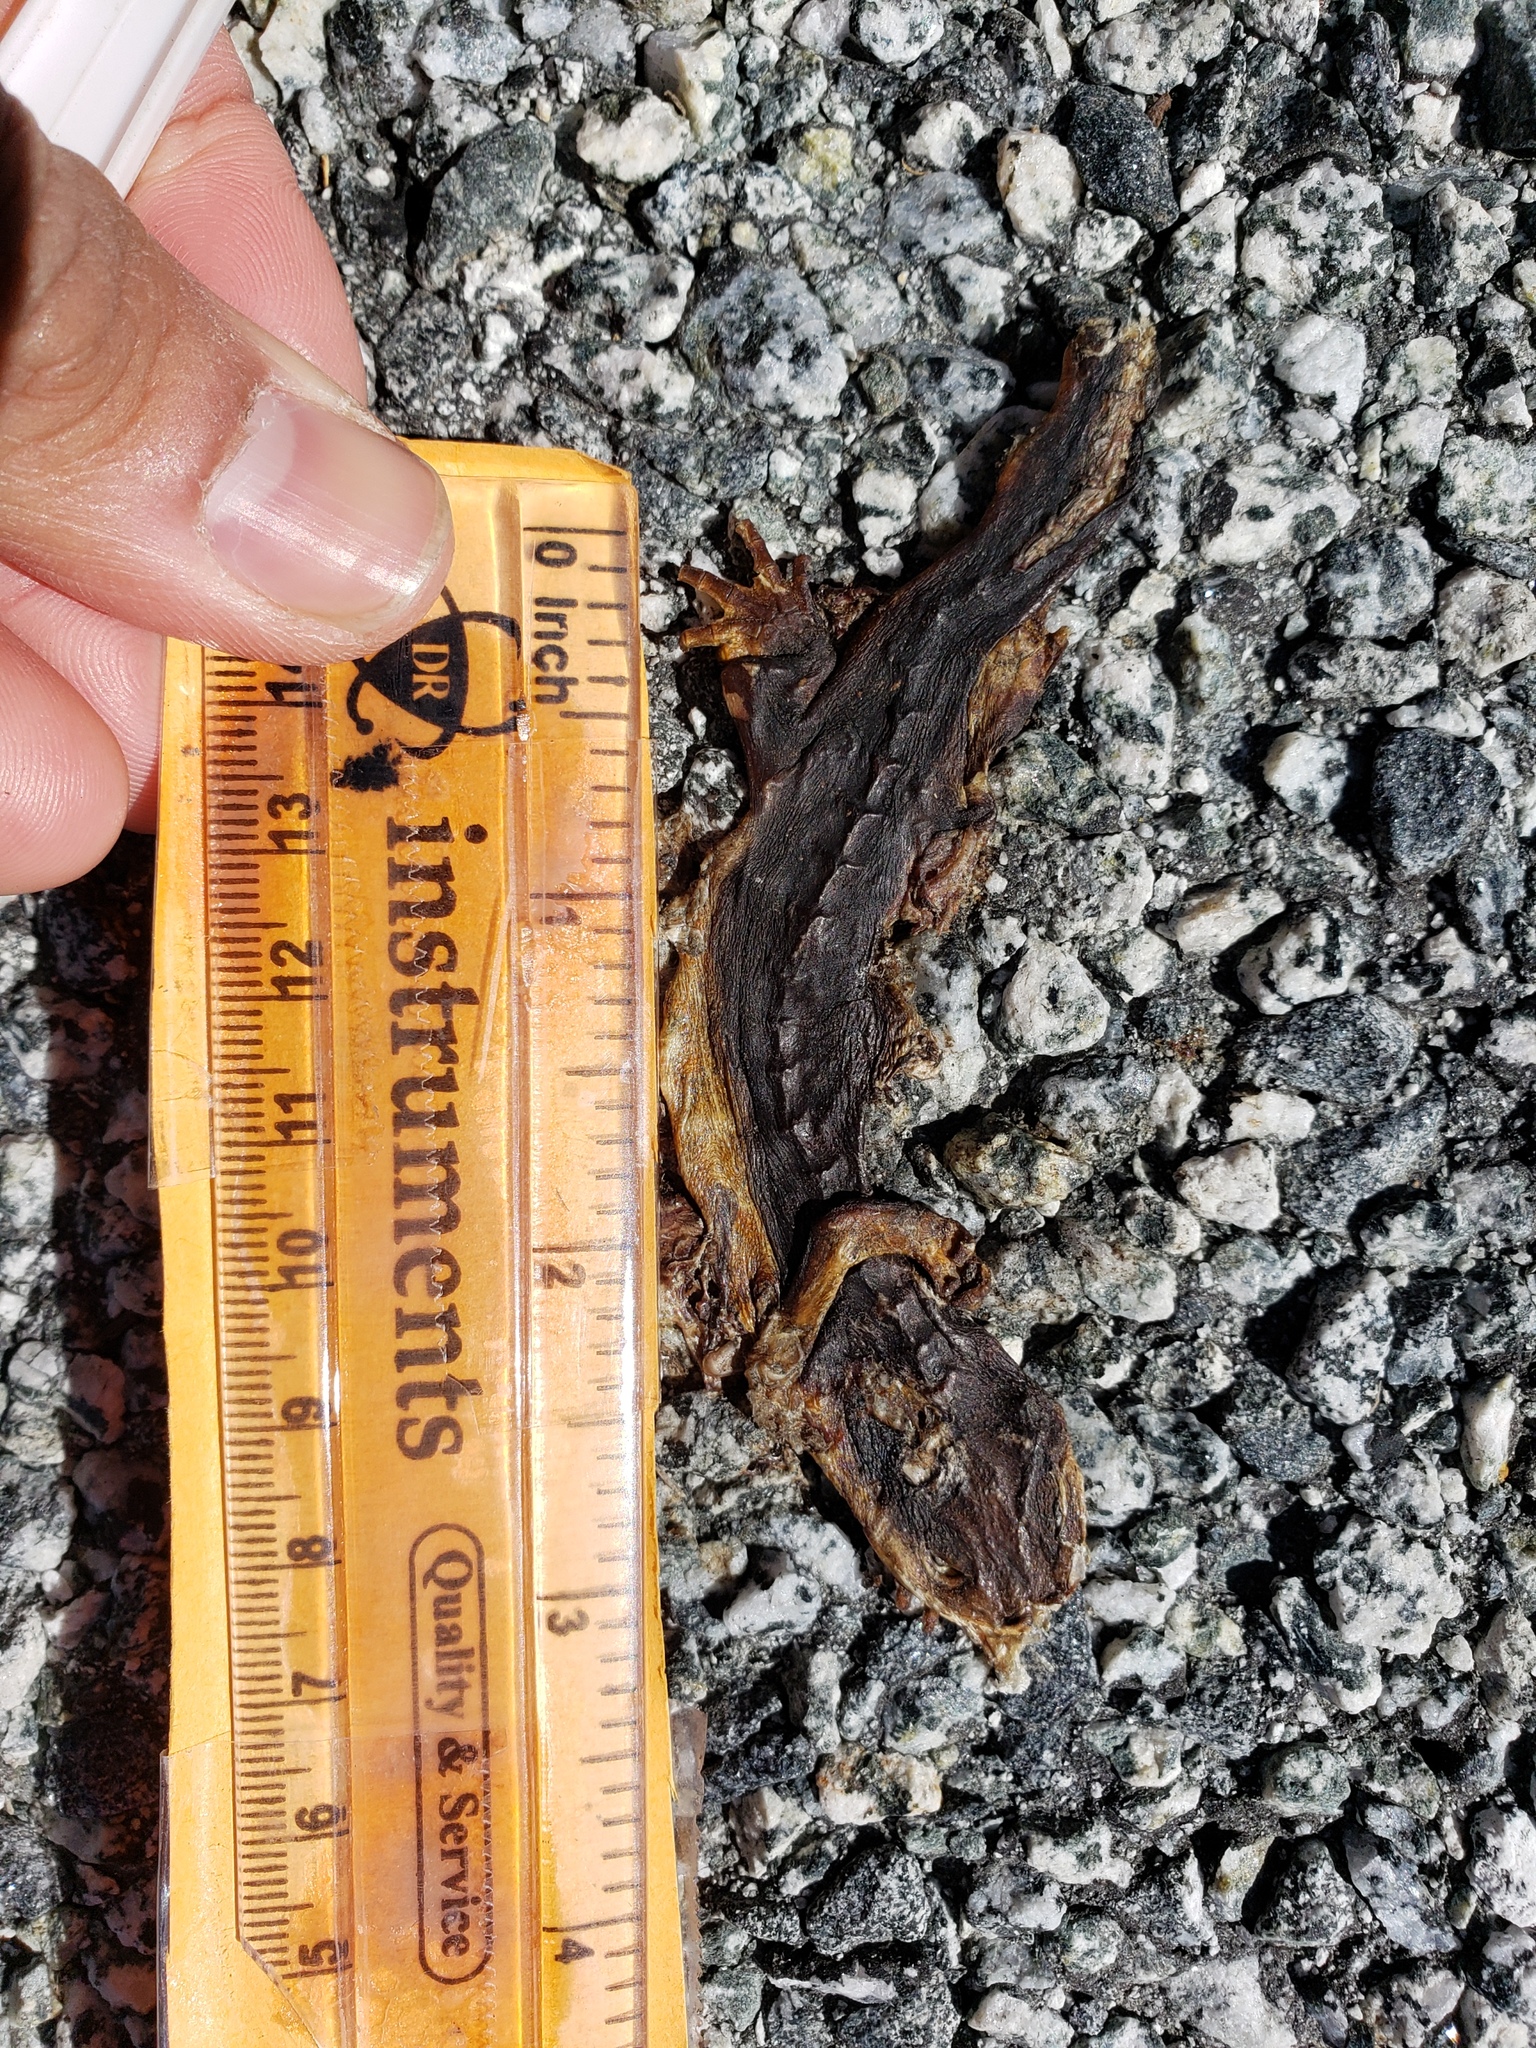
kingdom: Animalia
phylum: Chordata
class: Amphibia
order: Caudata
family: Salamandridae
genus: Taricha
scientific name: Taricha
